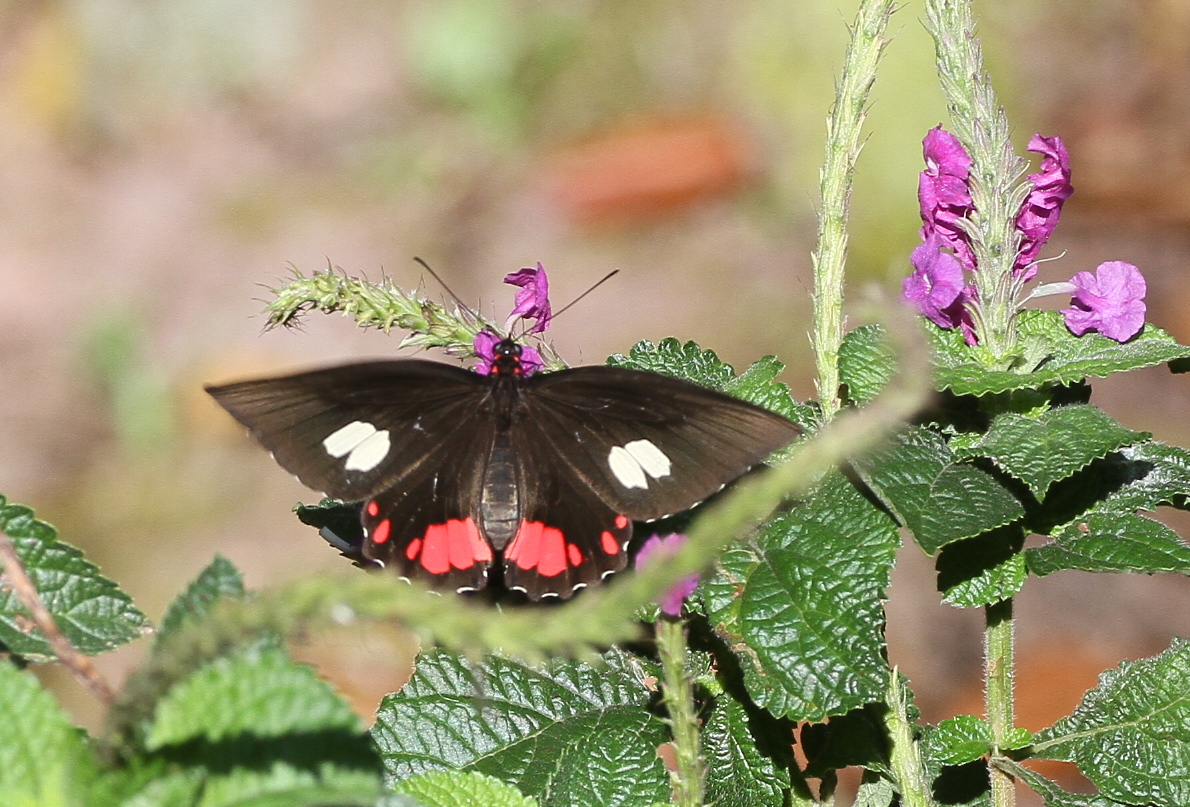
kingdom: Animalia
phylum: Arthropoda
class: Insecta
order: Lepidoptera
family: Papilionidae
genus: Parides
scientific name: Parides sesostris
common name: Southern cattle heart
